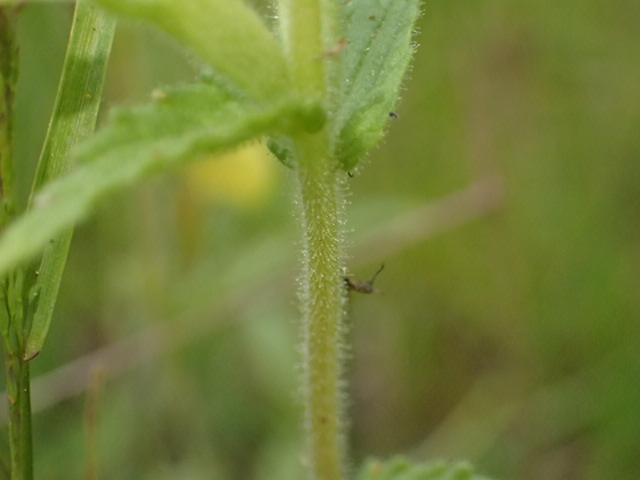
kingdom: Plantae
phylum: Tracheophyta
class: Magnoliopsida
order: Lamiales
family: Orobanchaceae
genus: Bellardia
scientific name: Bellardia viscosa
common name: Sticky parentucellia
